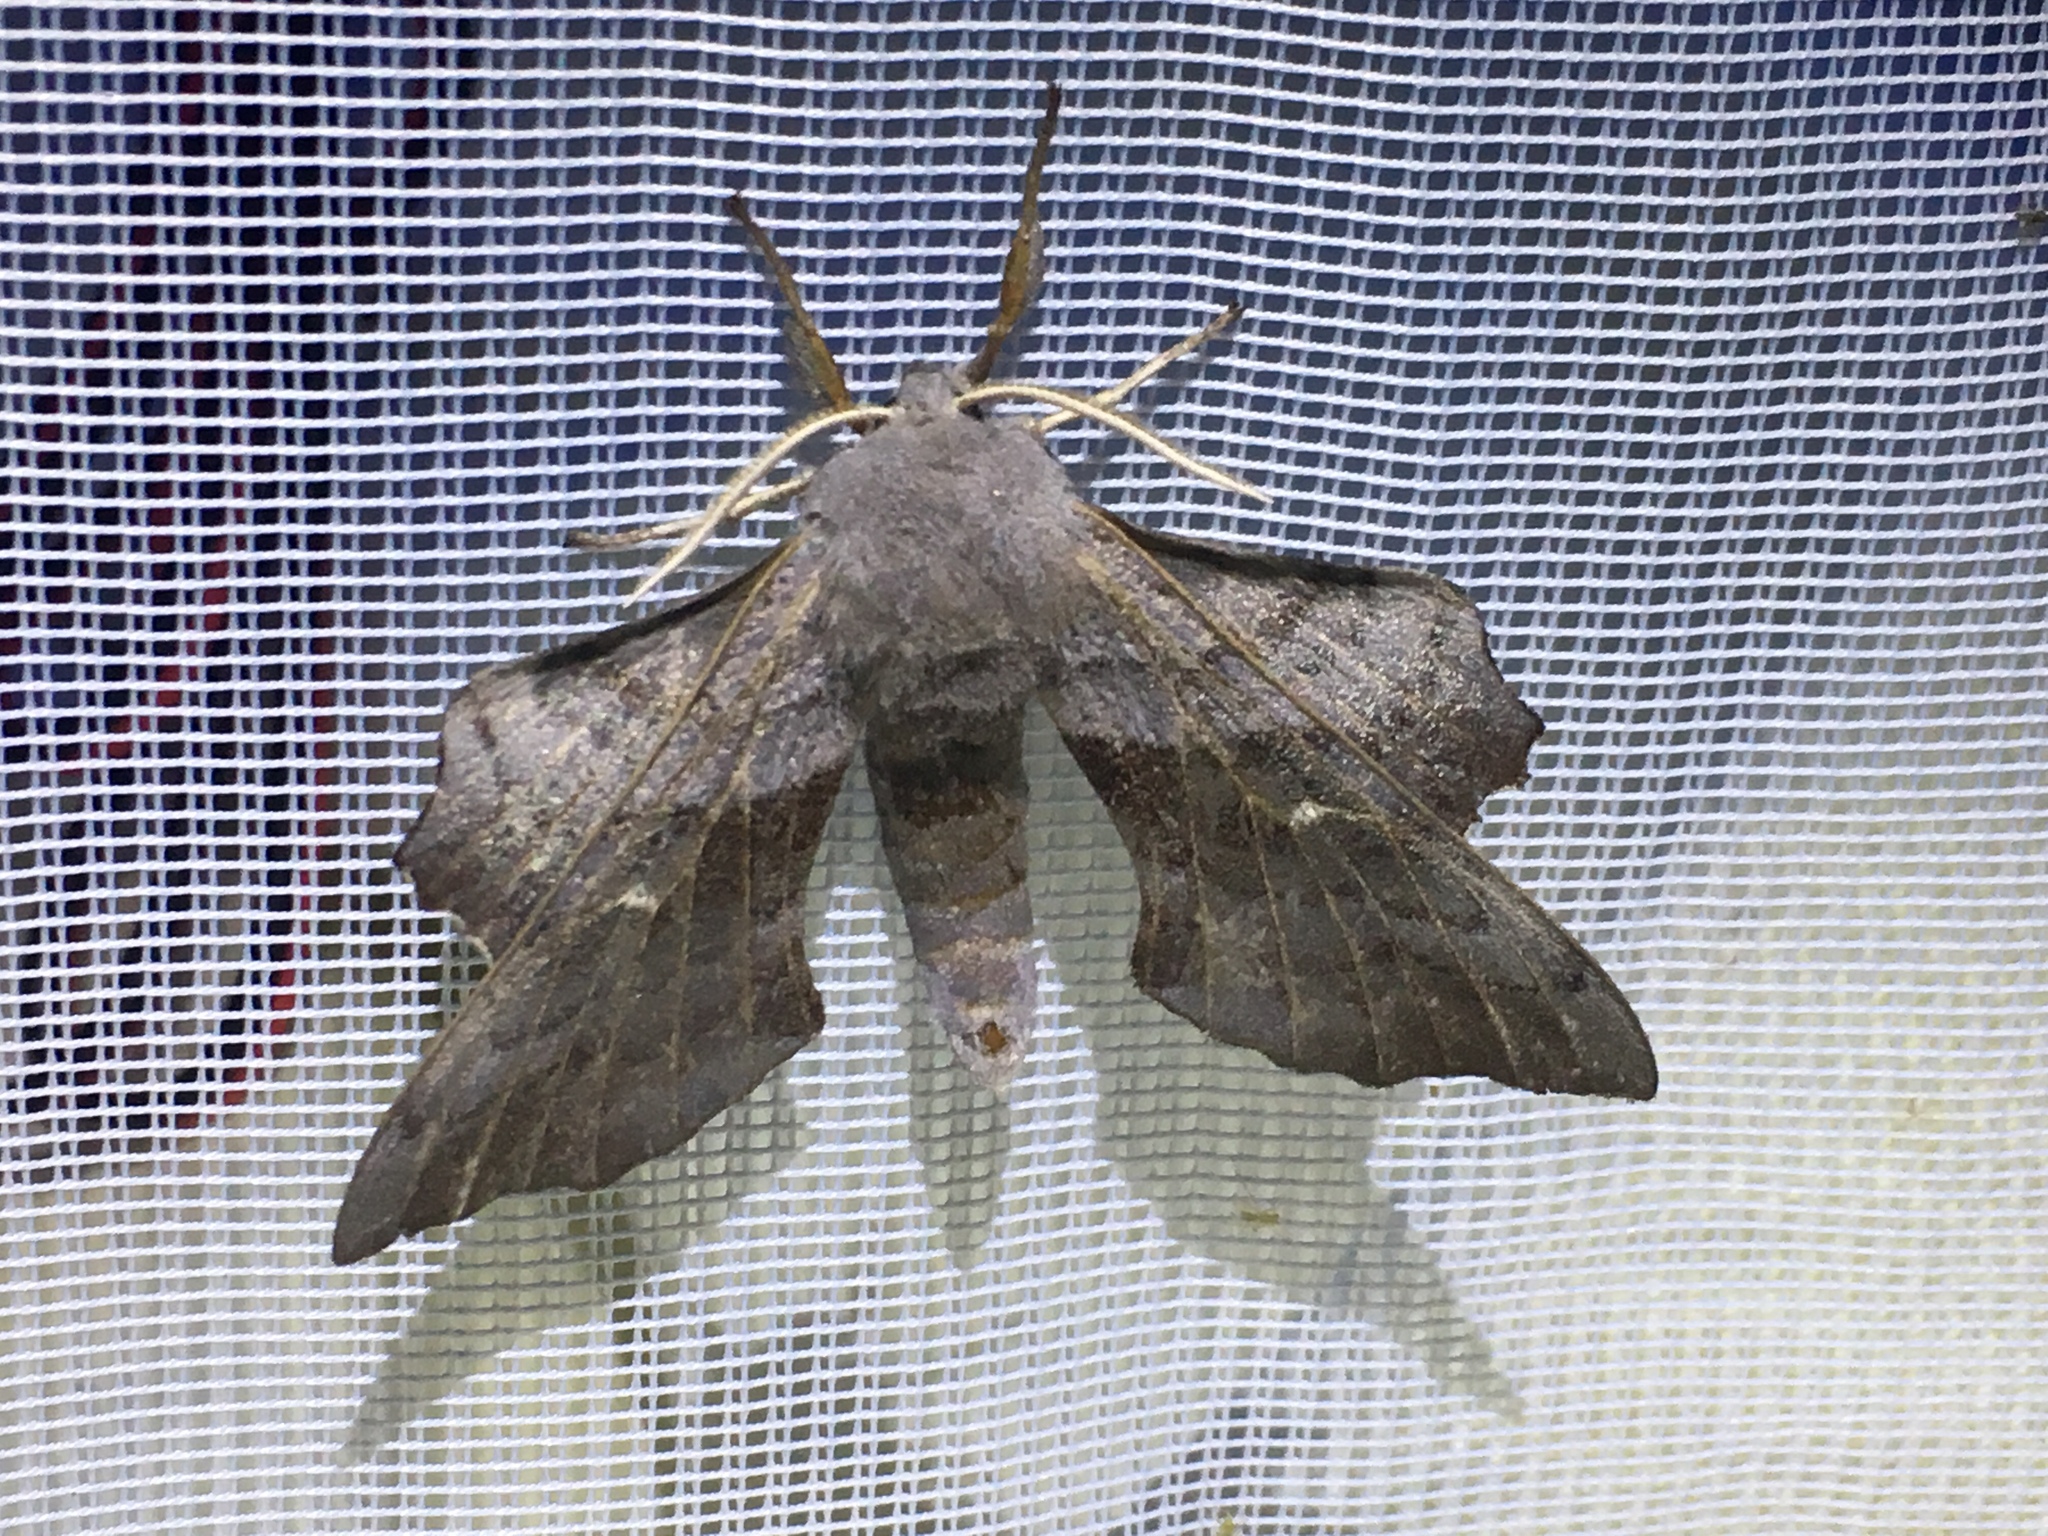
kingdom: Animalia
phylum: Arthropoda
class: Insecta
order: Lepidoptera
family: Sphingidae
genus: Laothoe
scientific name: Laothoe populi
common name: Poplar hawk-moth
